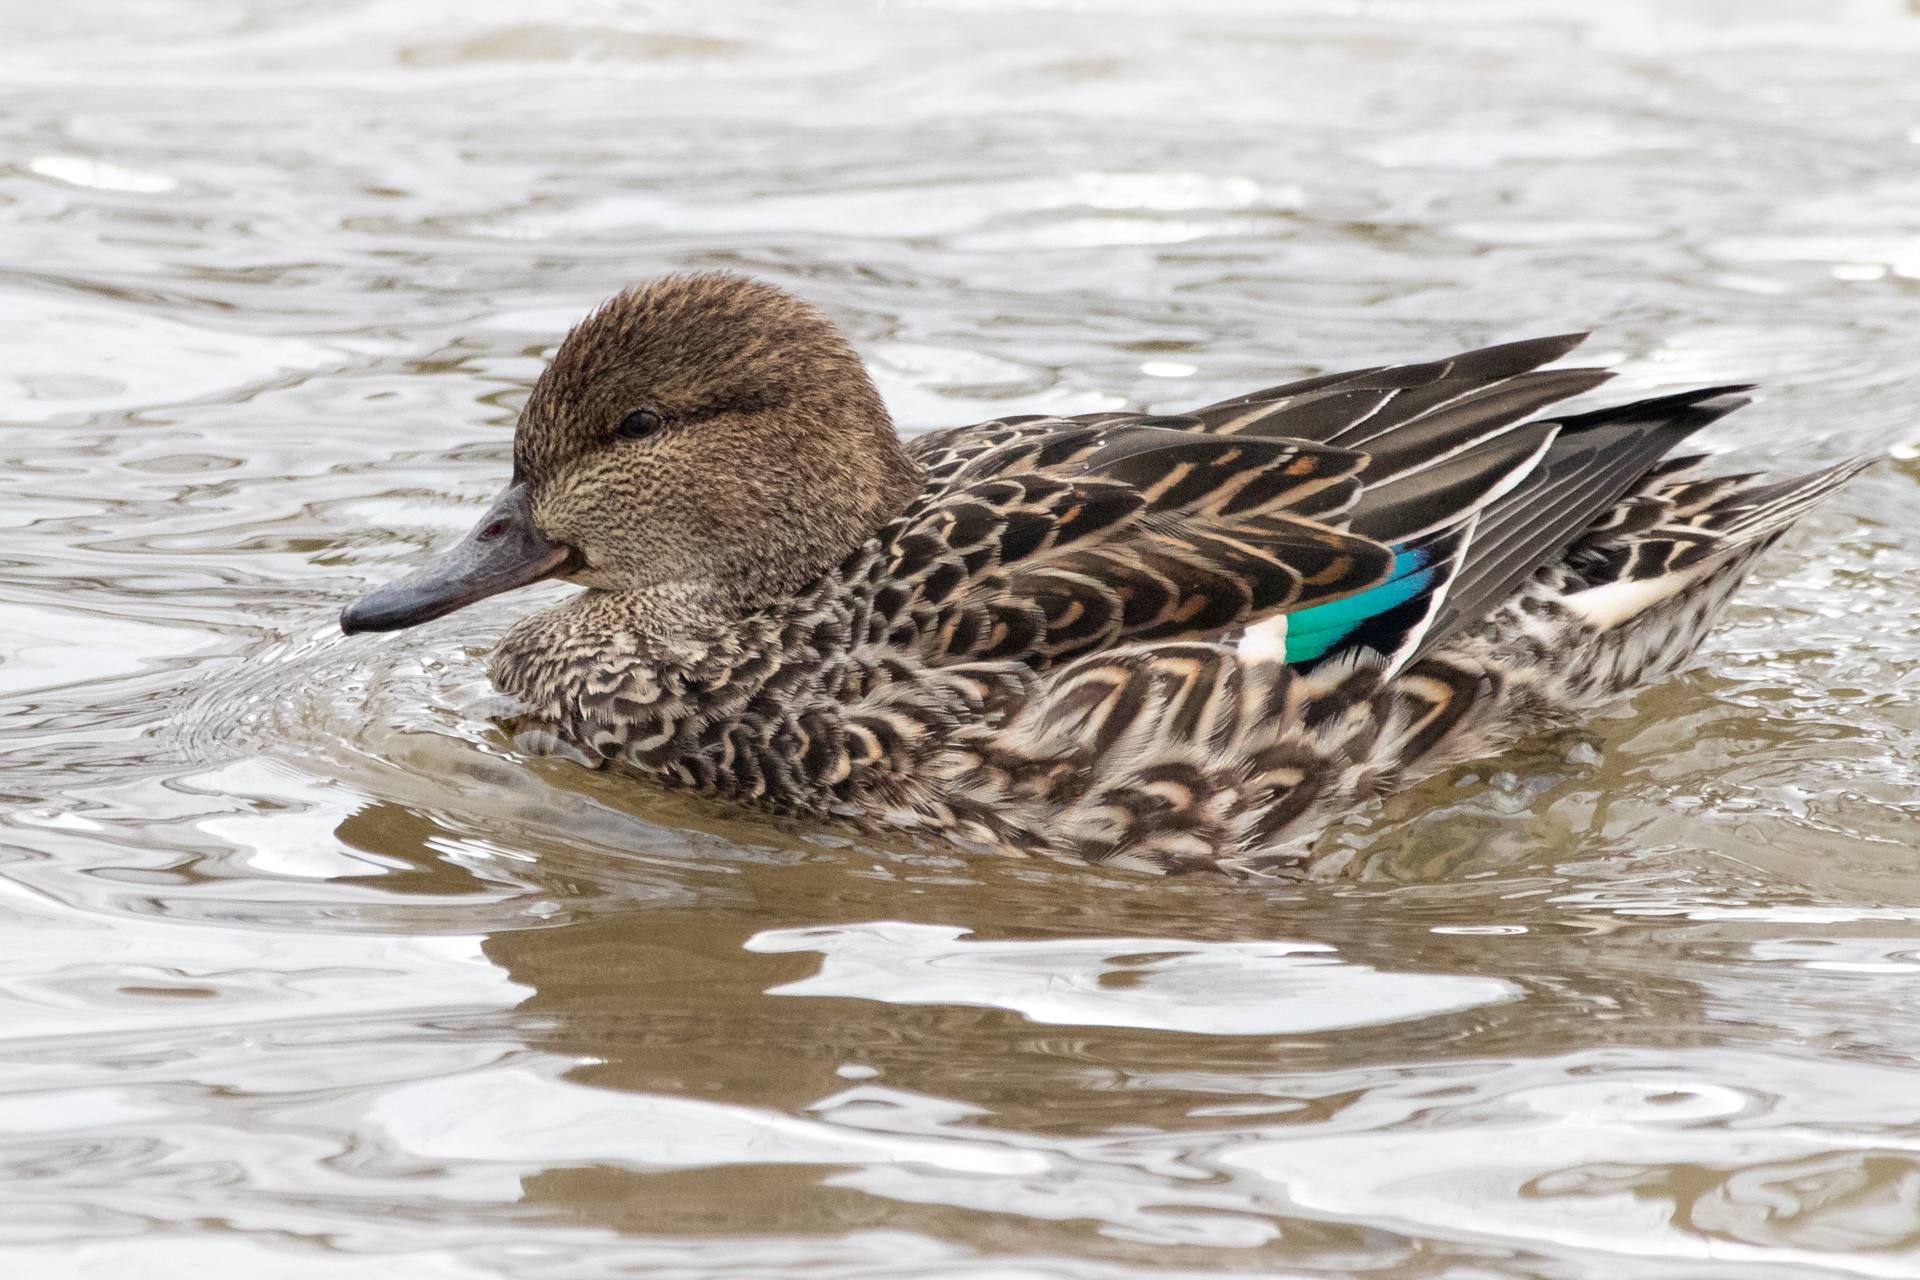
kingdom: Animalia
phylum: Chordata
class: Aves
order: Anseriformes
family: Anatidae
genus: Anas
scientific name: Anas crecca
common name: Eurasian teal
